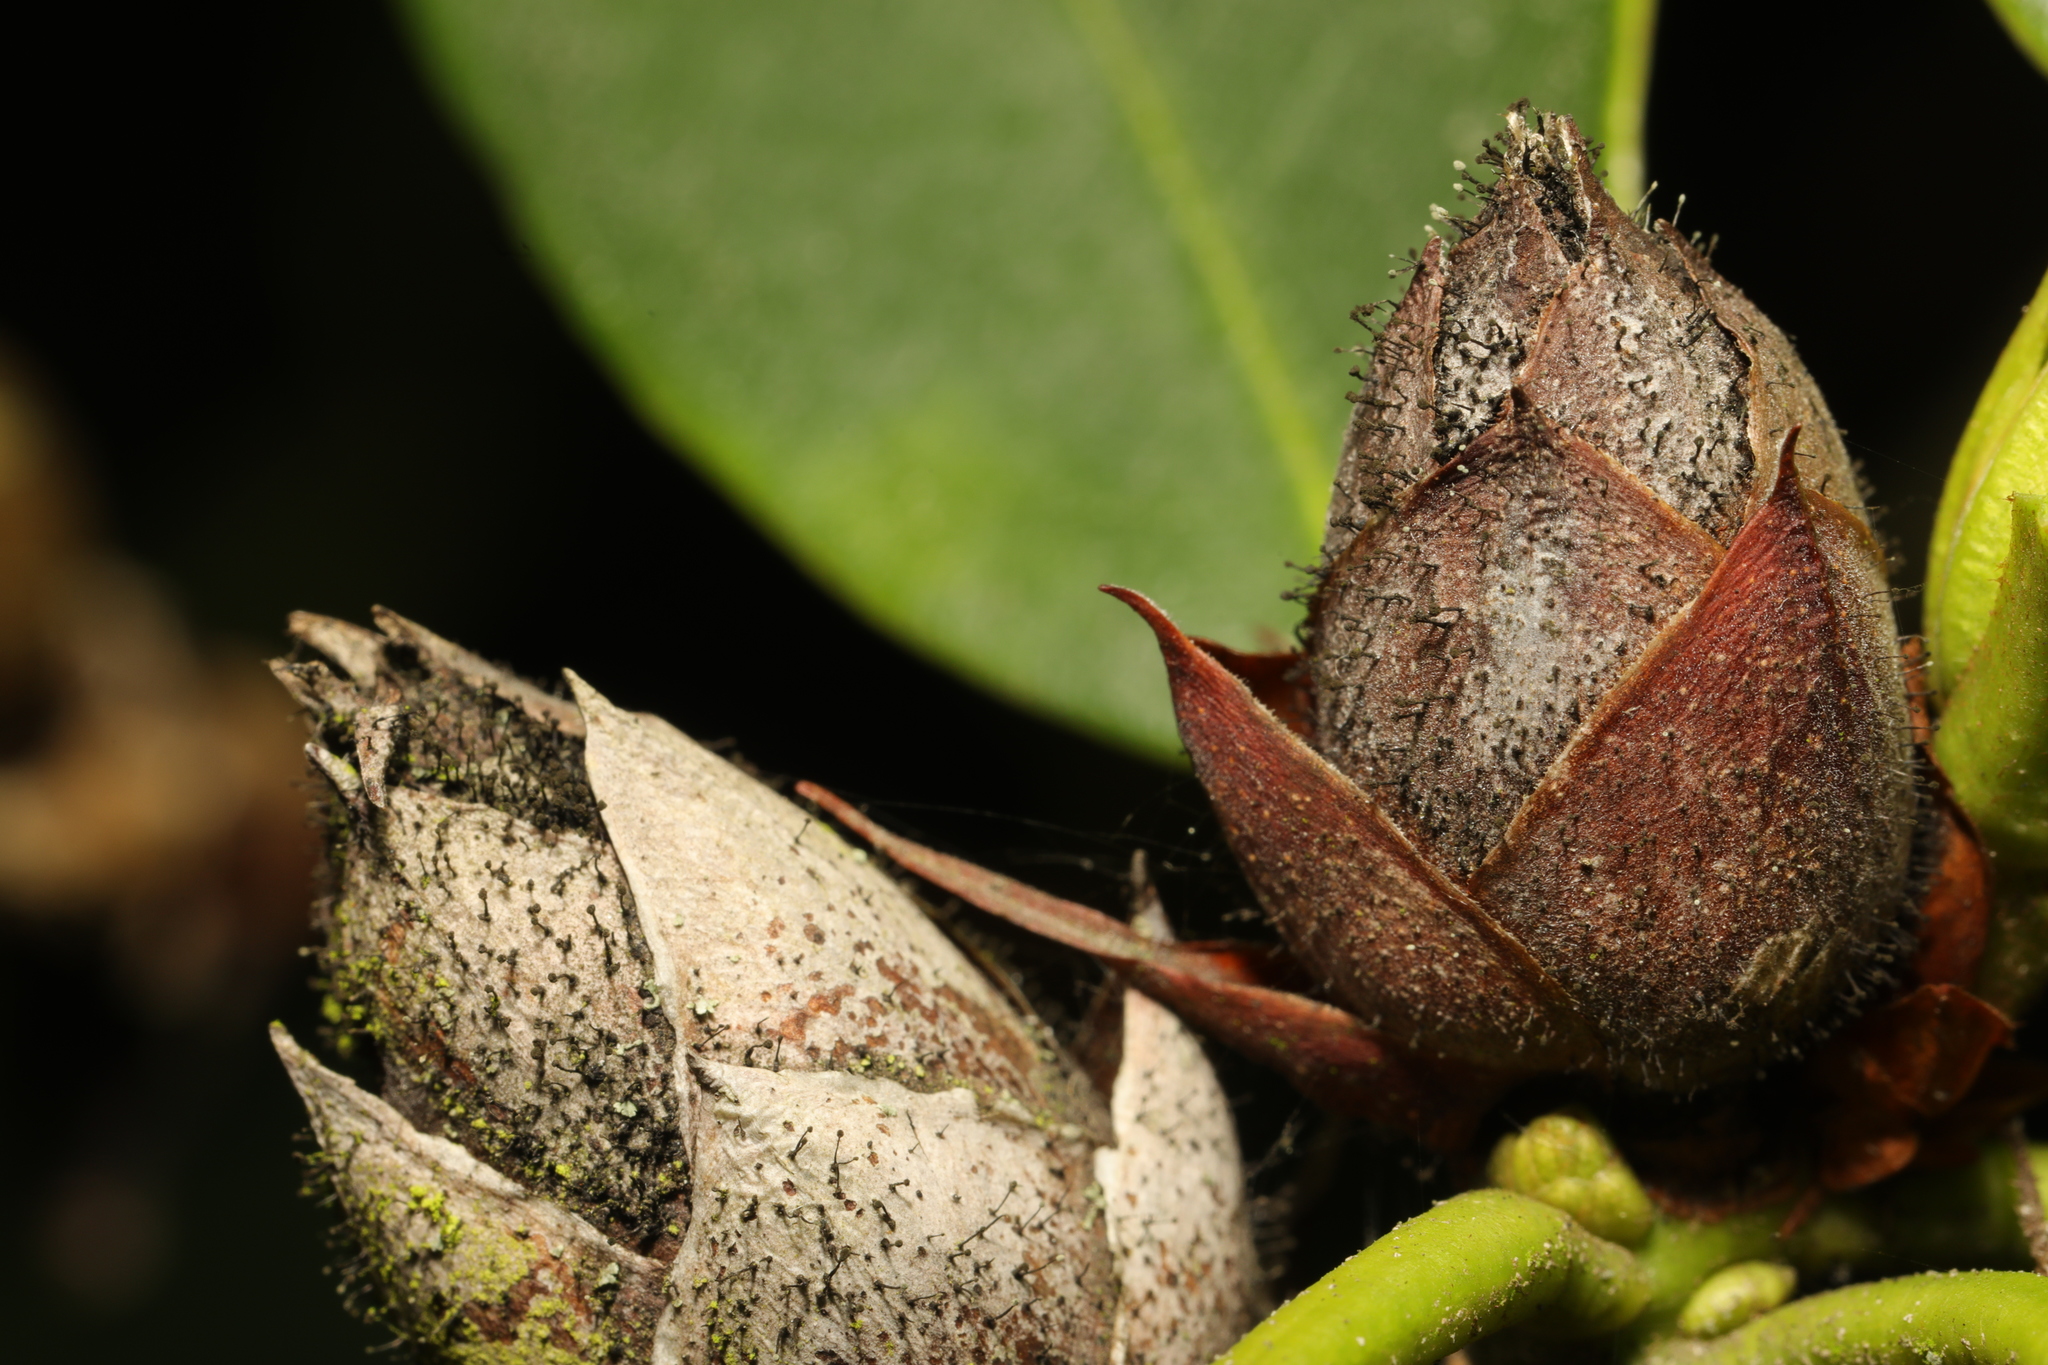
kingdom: Plantae
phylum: Tracheophyta
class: Magnoliopsida
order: Ericales
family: Ericaceae
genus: Rhododendron
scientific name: Rhododendron ponticum
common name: Rhododendron
